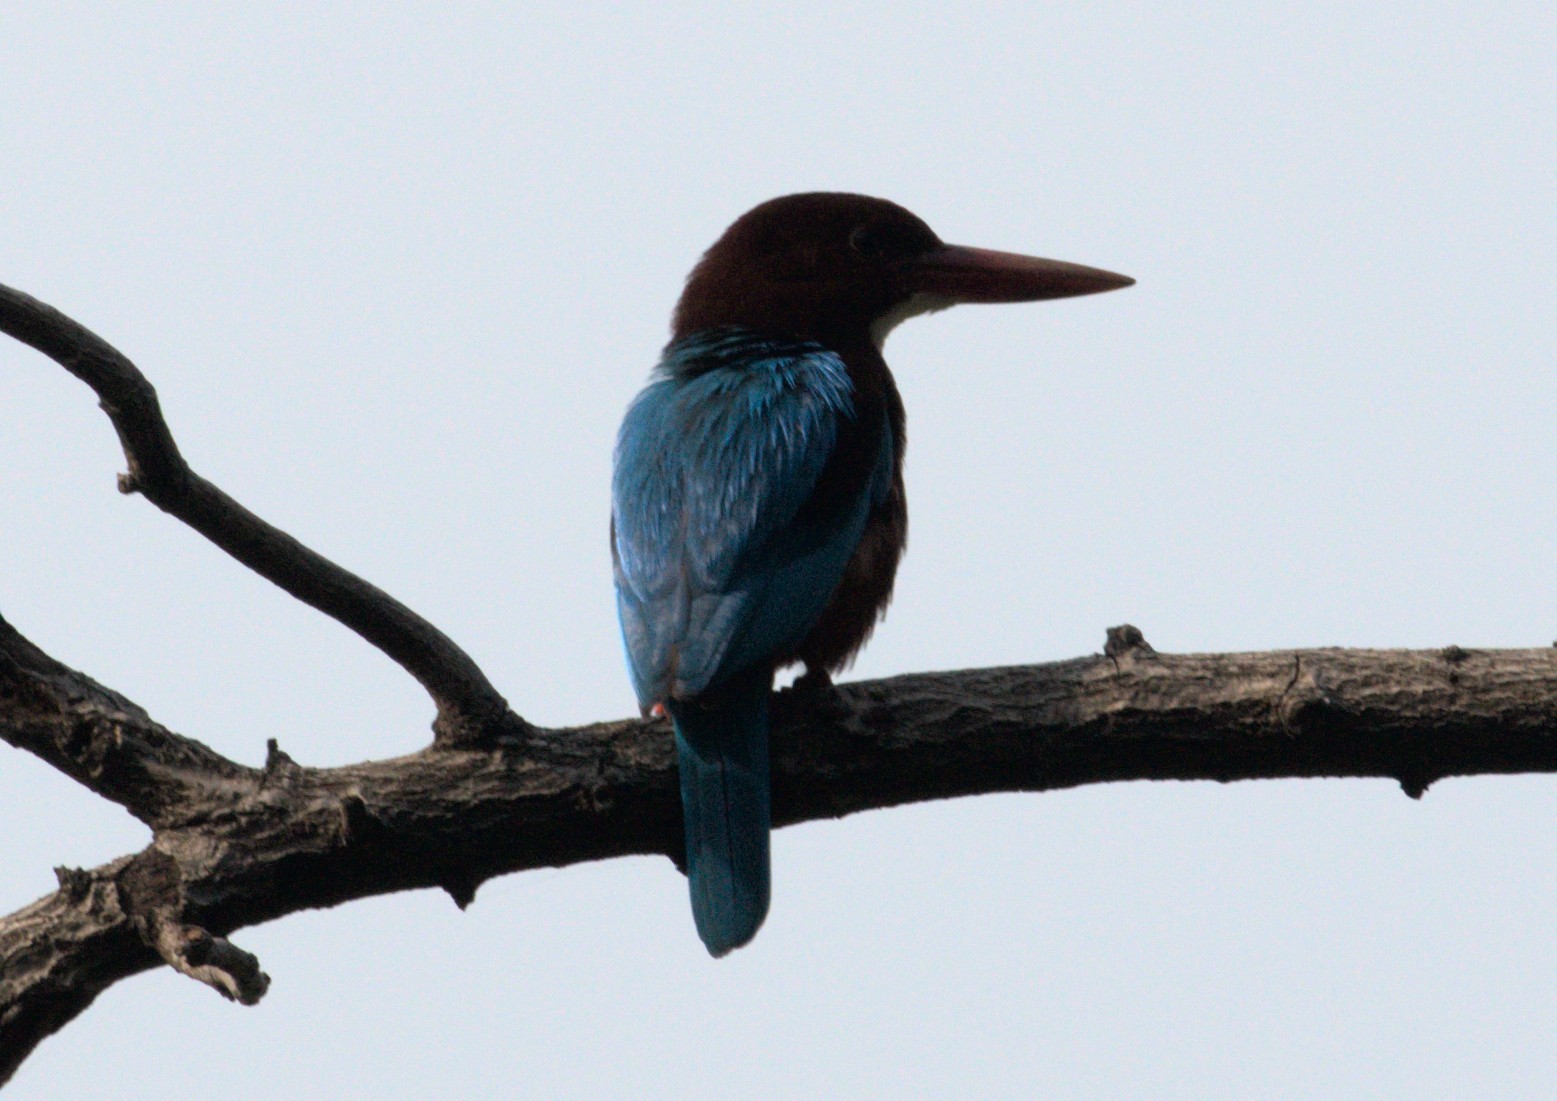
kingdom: Animalia
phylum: Chordata
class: Aves
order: Coraciiformes
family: Alcedinidae
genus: Halcyon
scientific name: Halcyon smyrnensis
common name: White-throated kingfisher
